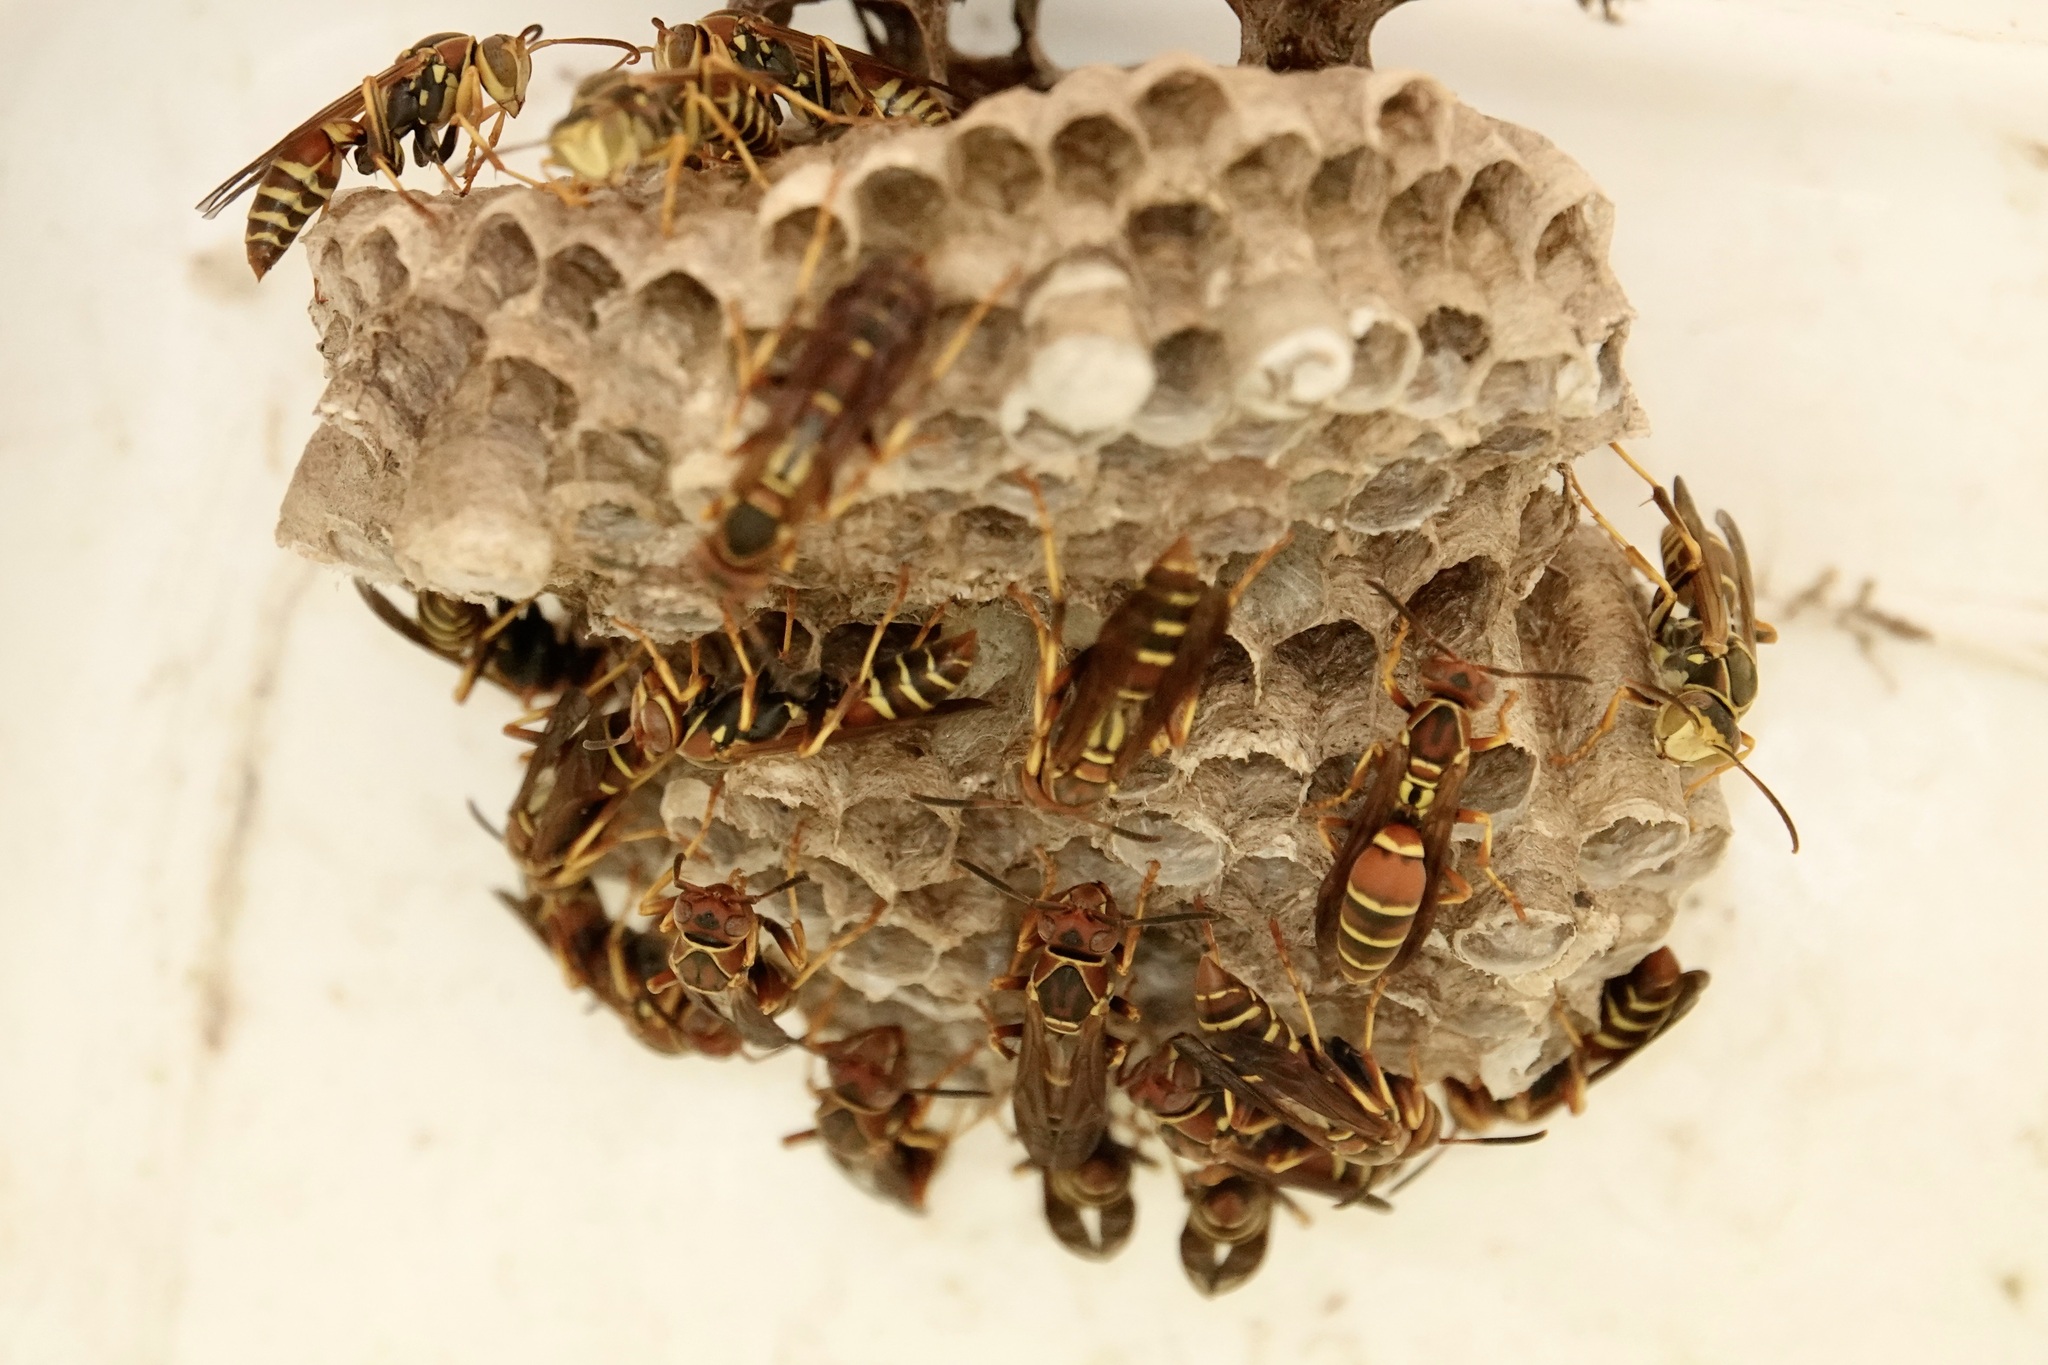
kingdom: Animalia
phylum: Arthropoda
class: Insecta
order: Hymenoptera
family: Eumenidae
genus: Polistes
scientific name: Polistes dorsalis
